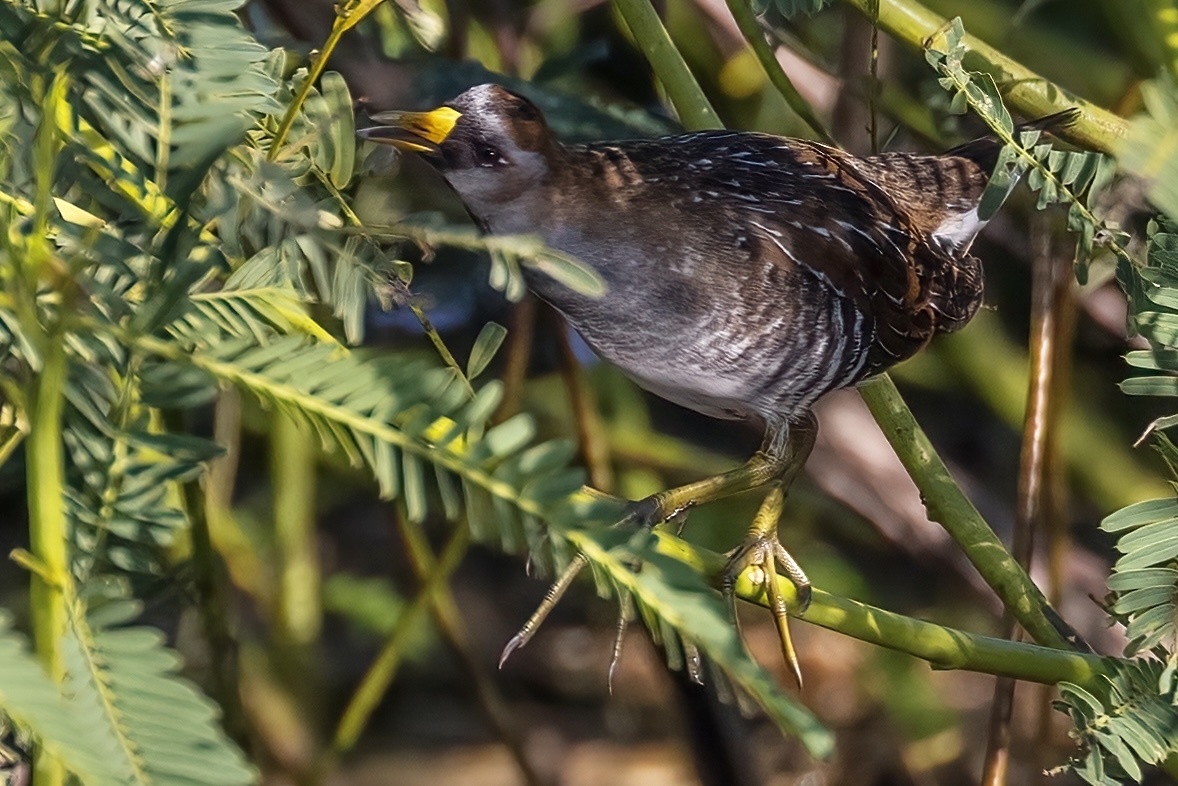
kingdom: Animalia
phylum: Chordata
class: Aves
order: Gruiformes
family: Rallidae
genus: Porzana
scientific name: Porzana carolina
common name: Sora
